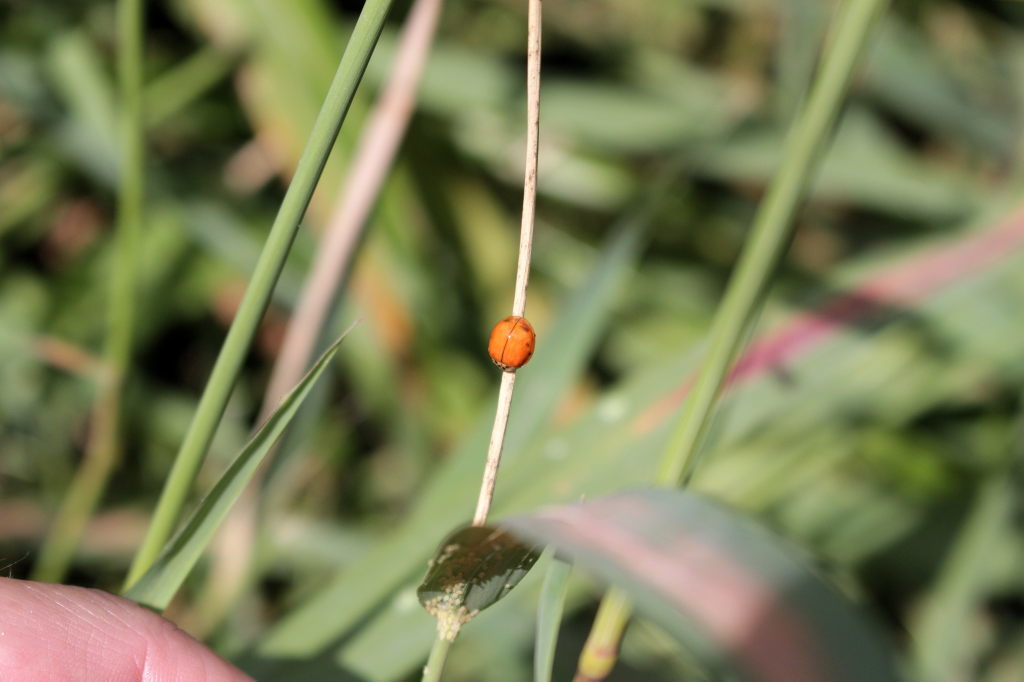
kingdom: Animalia
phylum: Arthropoda
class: Insecta
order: Coleoptera
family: Coccinellidae
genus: Harmonia
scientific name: Harmonia axyridis
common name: Harlequin ladybird
